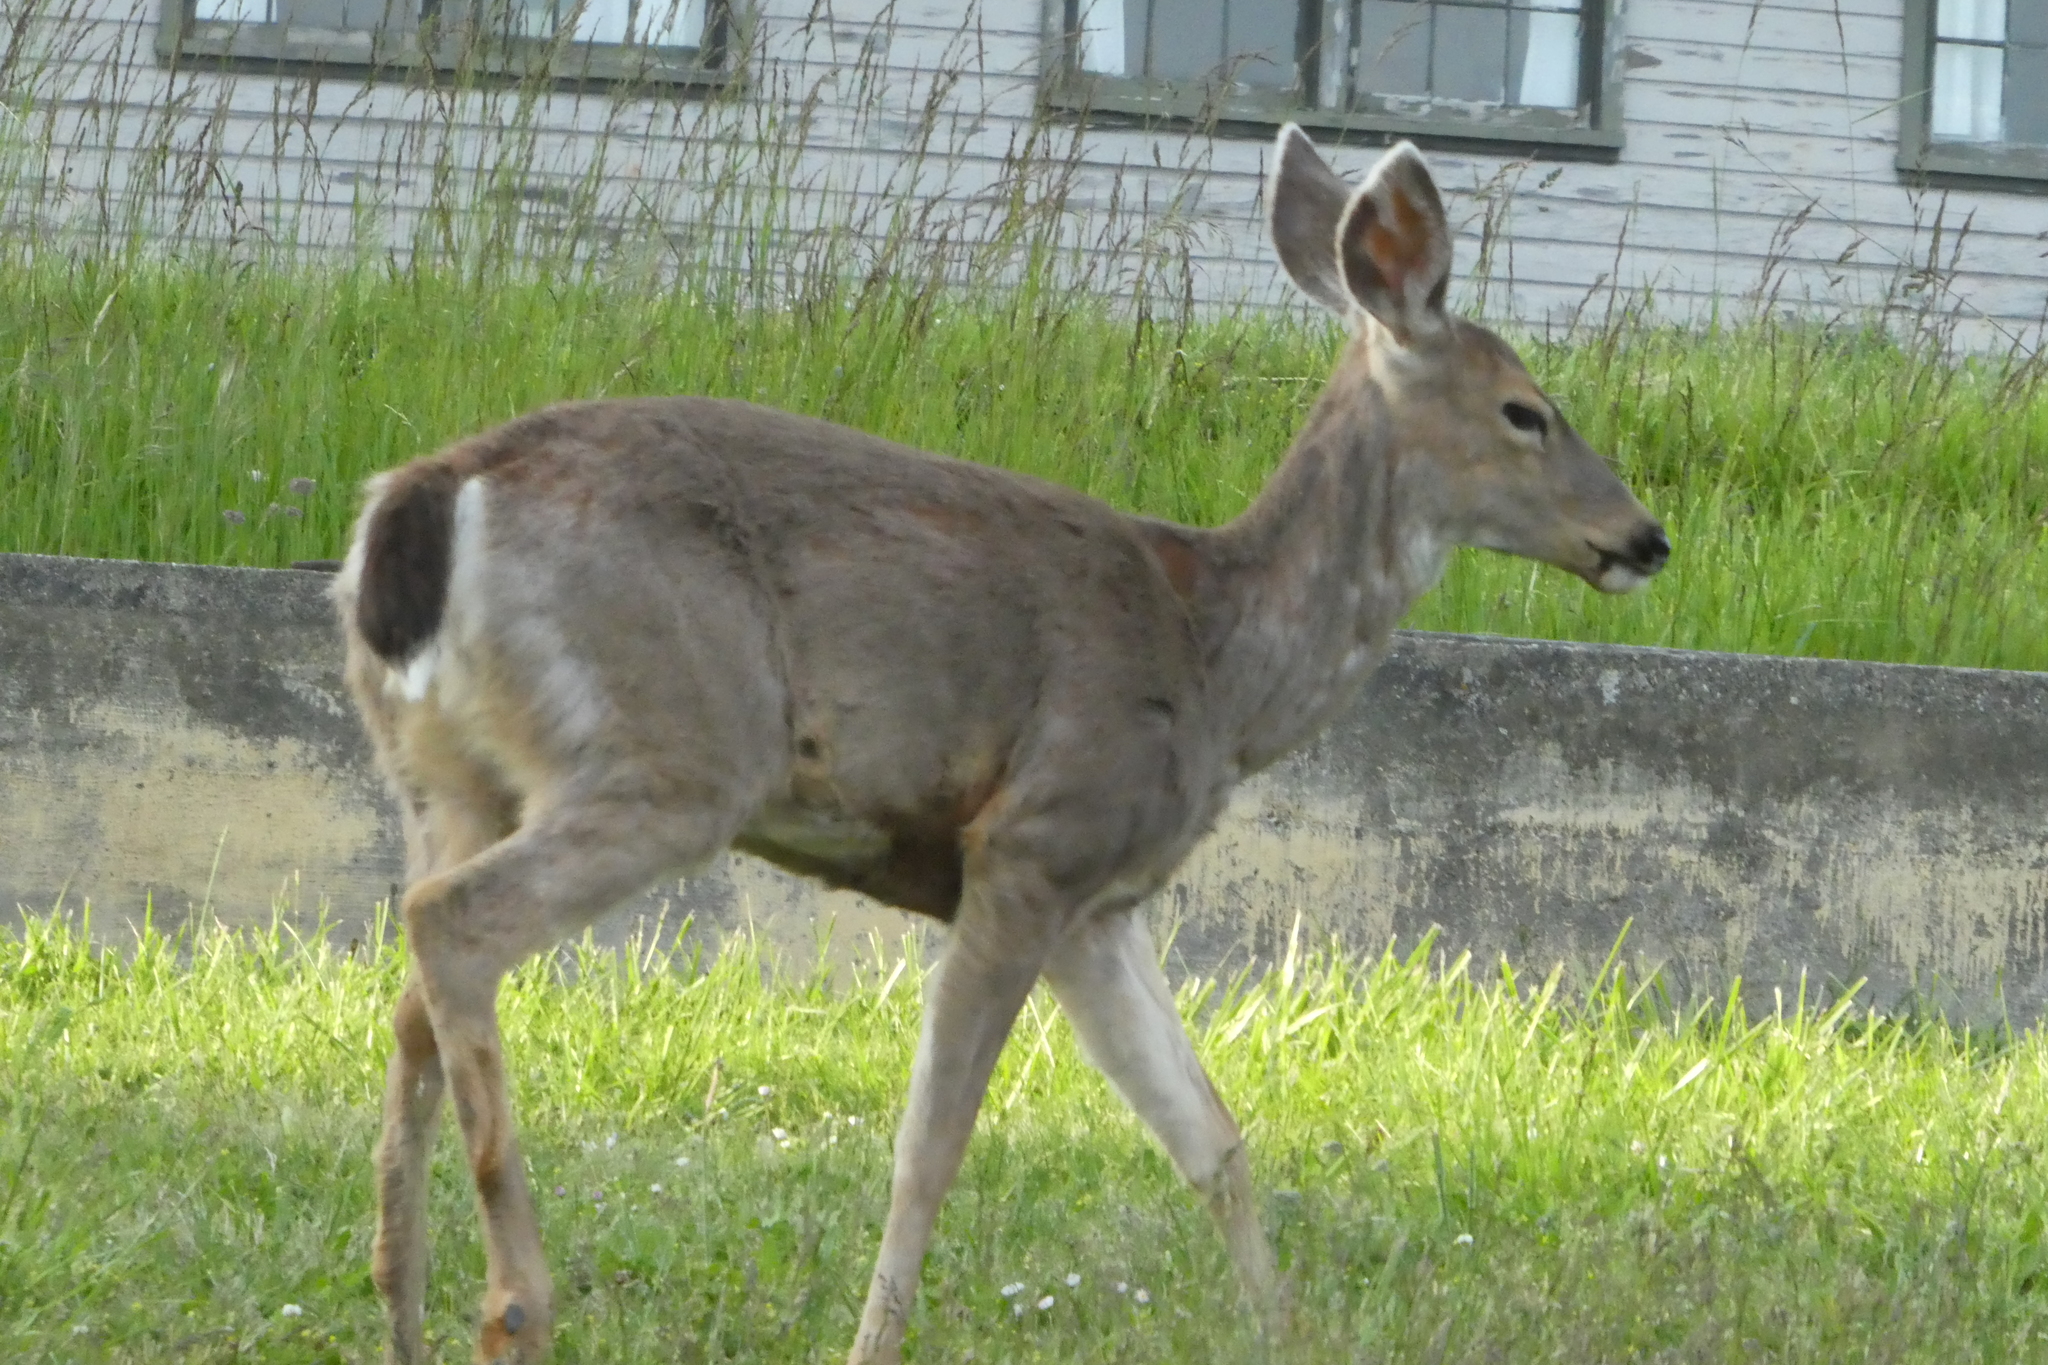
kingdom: Animalia
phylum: Chordata
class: Mammalia
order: Artiodactyla
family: Cervidae
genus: Odocoileus
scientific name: Odocoileus hemionus
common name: Mule deer
